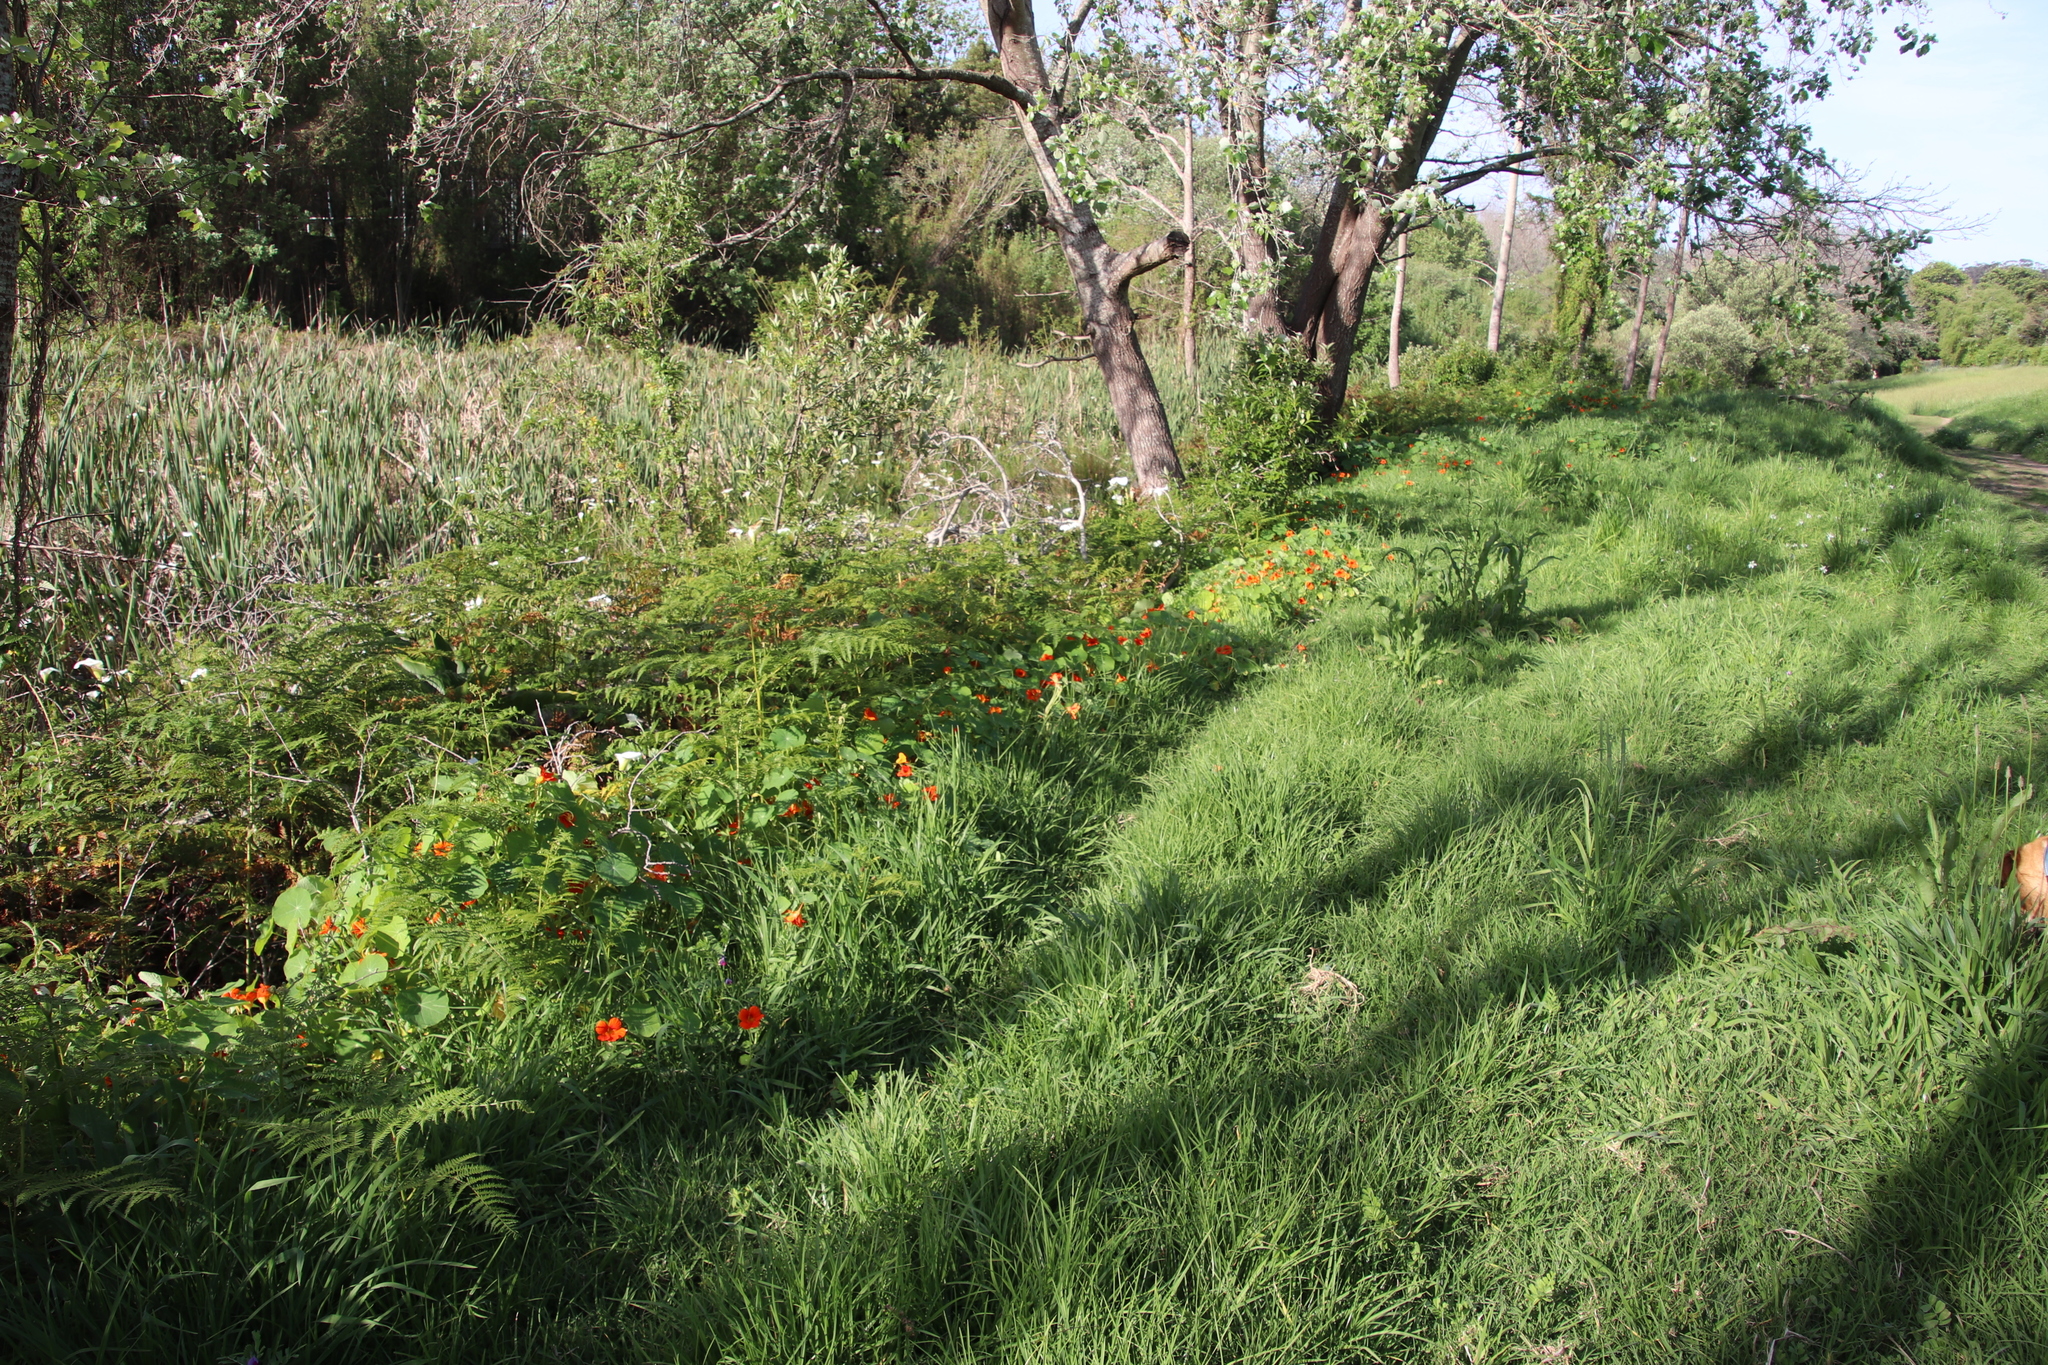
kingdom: Plantae
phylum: Tracheophyta
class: Magnoliopsida
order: Brassicales
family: Tropaeolaceae
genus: Tropaeolum
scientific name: Tropaeolum majus
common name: Nasturtium
